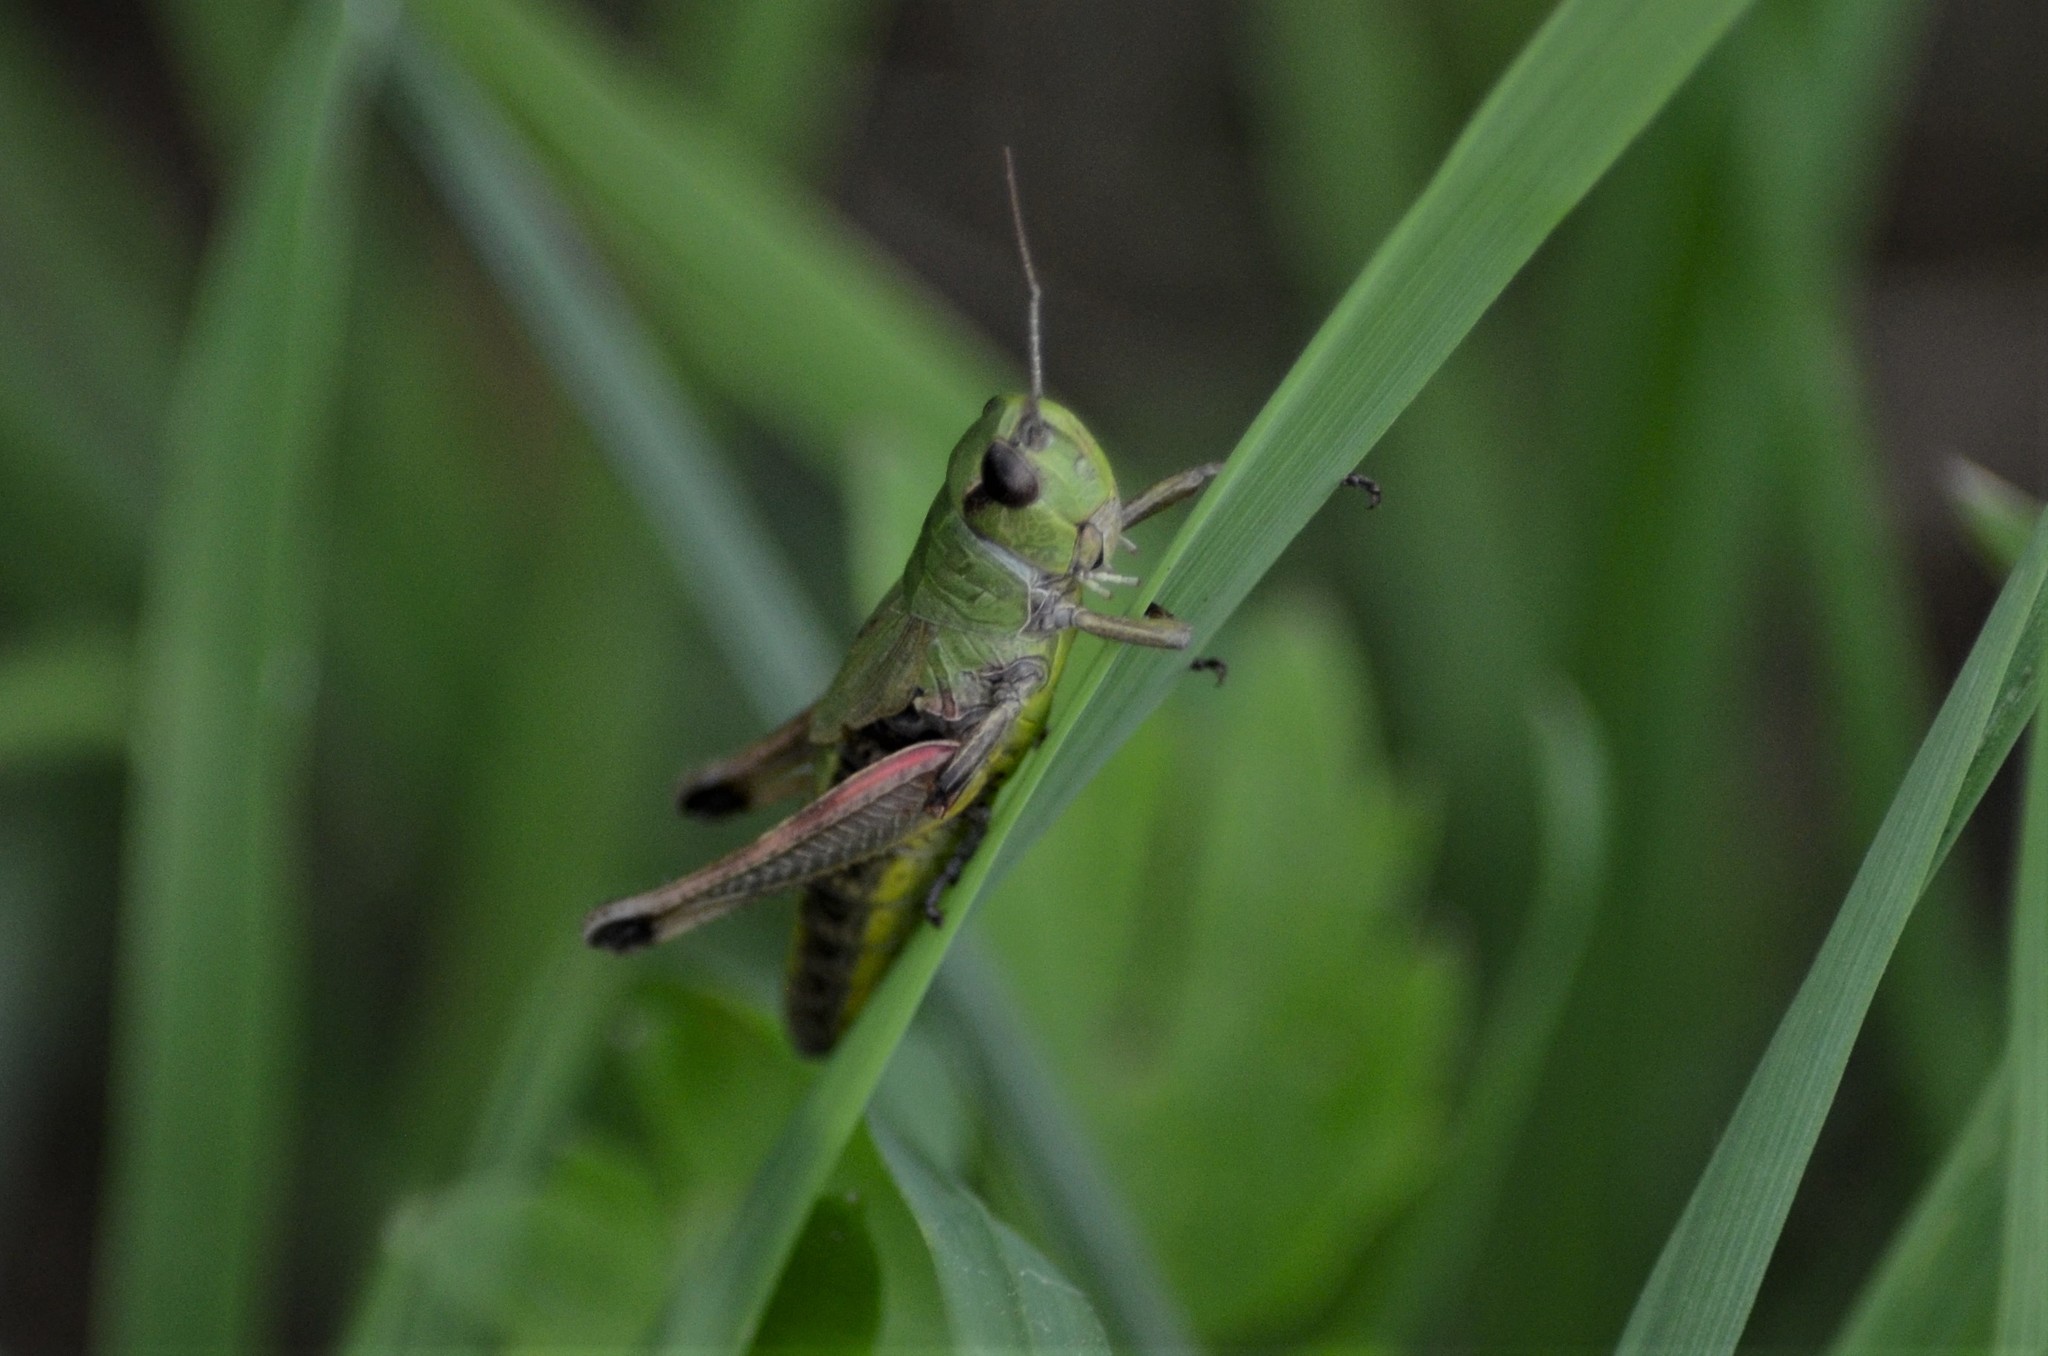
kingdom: Animalia
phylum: Arthropoda
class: Insecta
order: Orthoptera
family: Acrididae
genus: Pseudochorthippus
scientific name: Pseudochorthippus parallelus
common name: Meadow grasshopper
